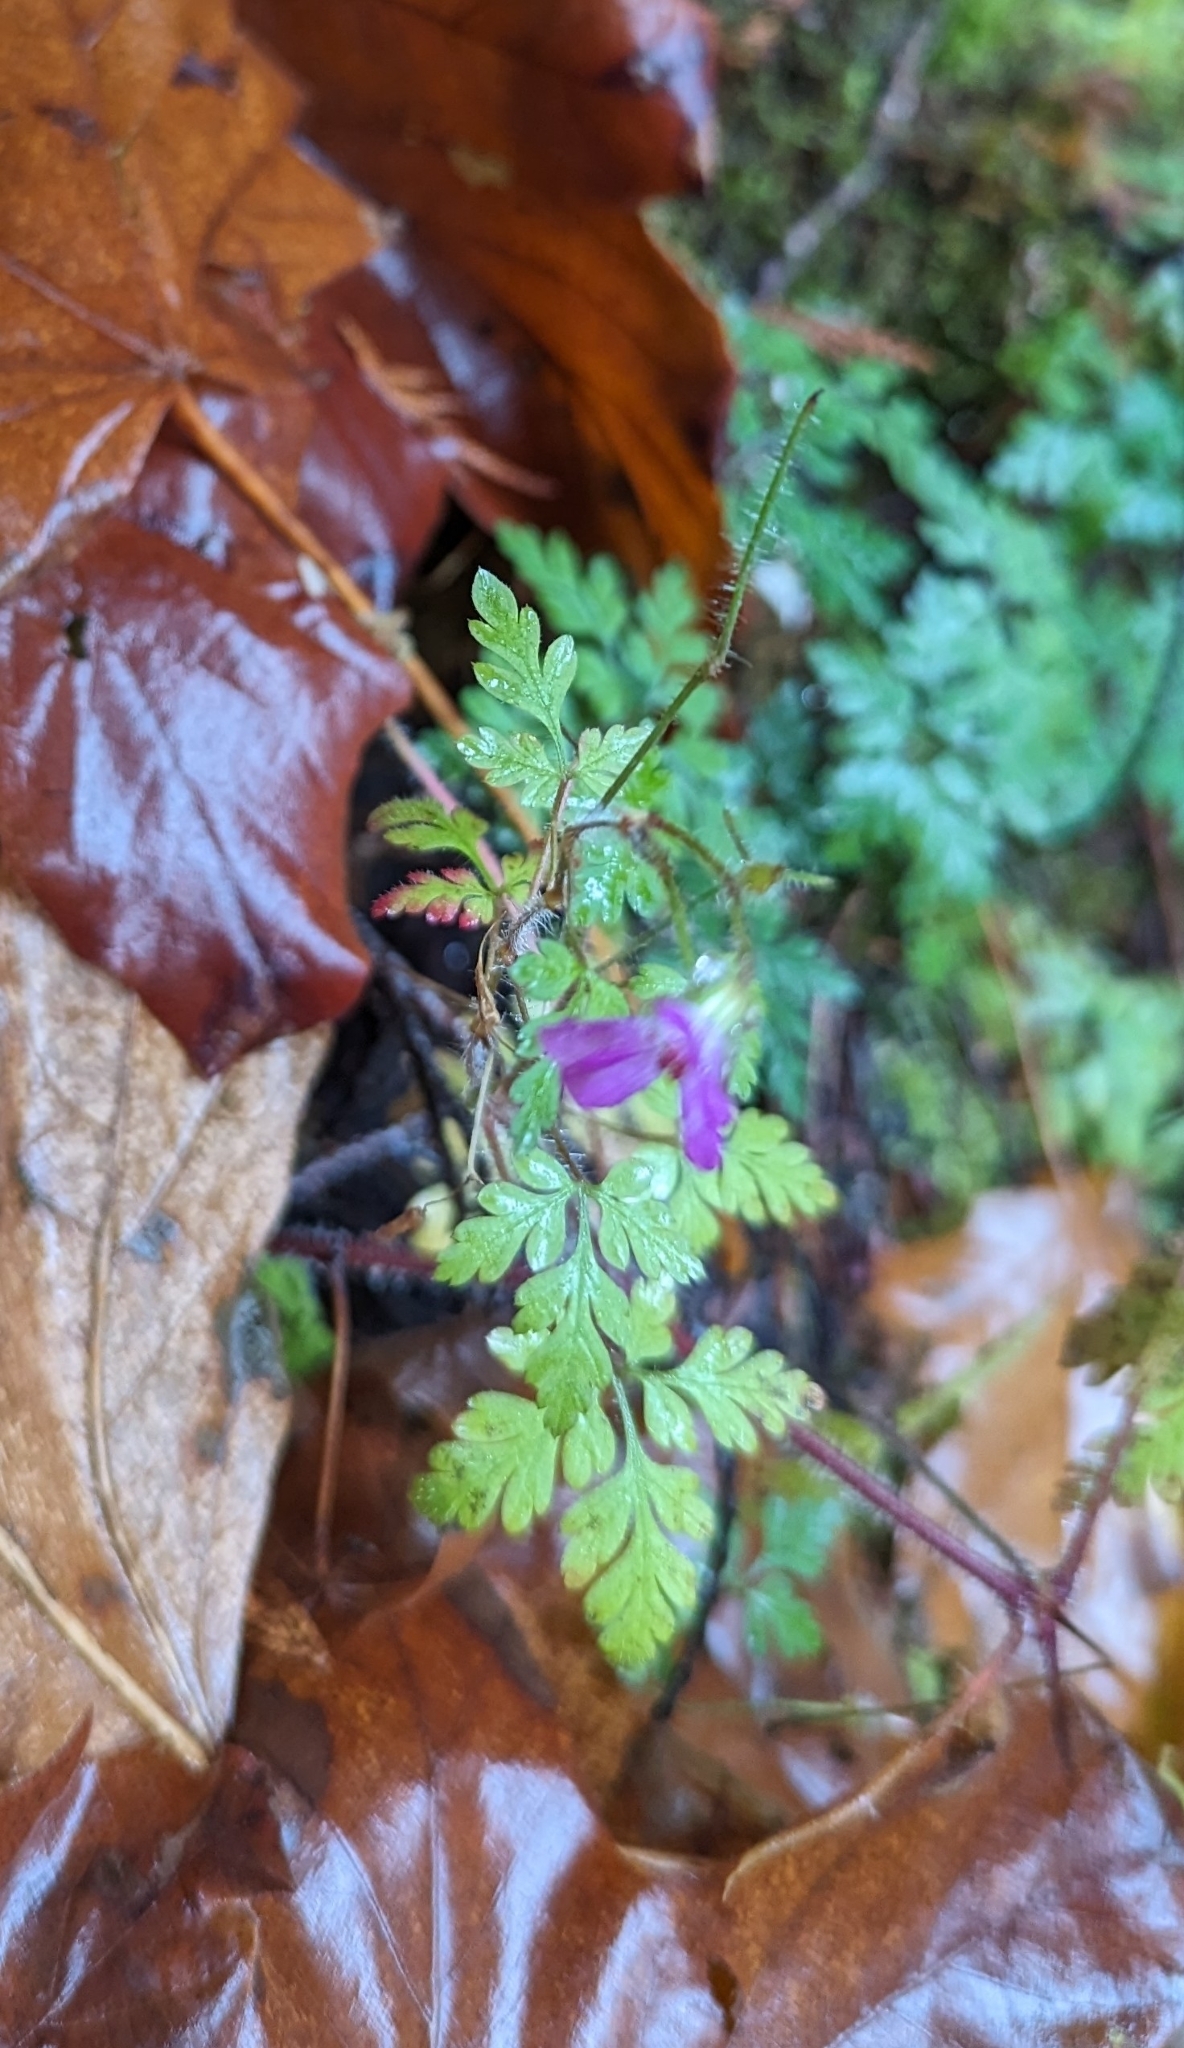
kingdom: Plantae
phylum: Tracheophyta
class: Magnoliopsida
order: Geraniales
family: Geraniaceae
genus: Geranium
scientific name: Geranium robertianum
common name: Herb-robert
